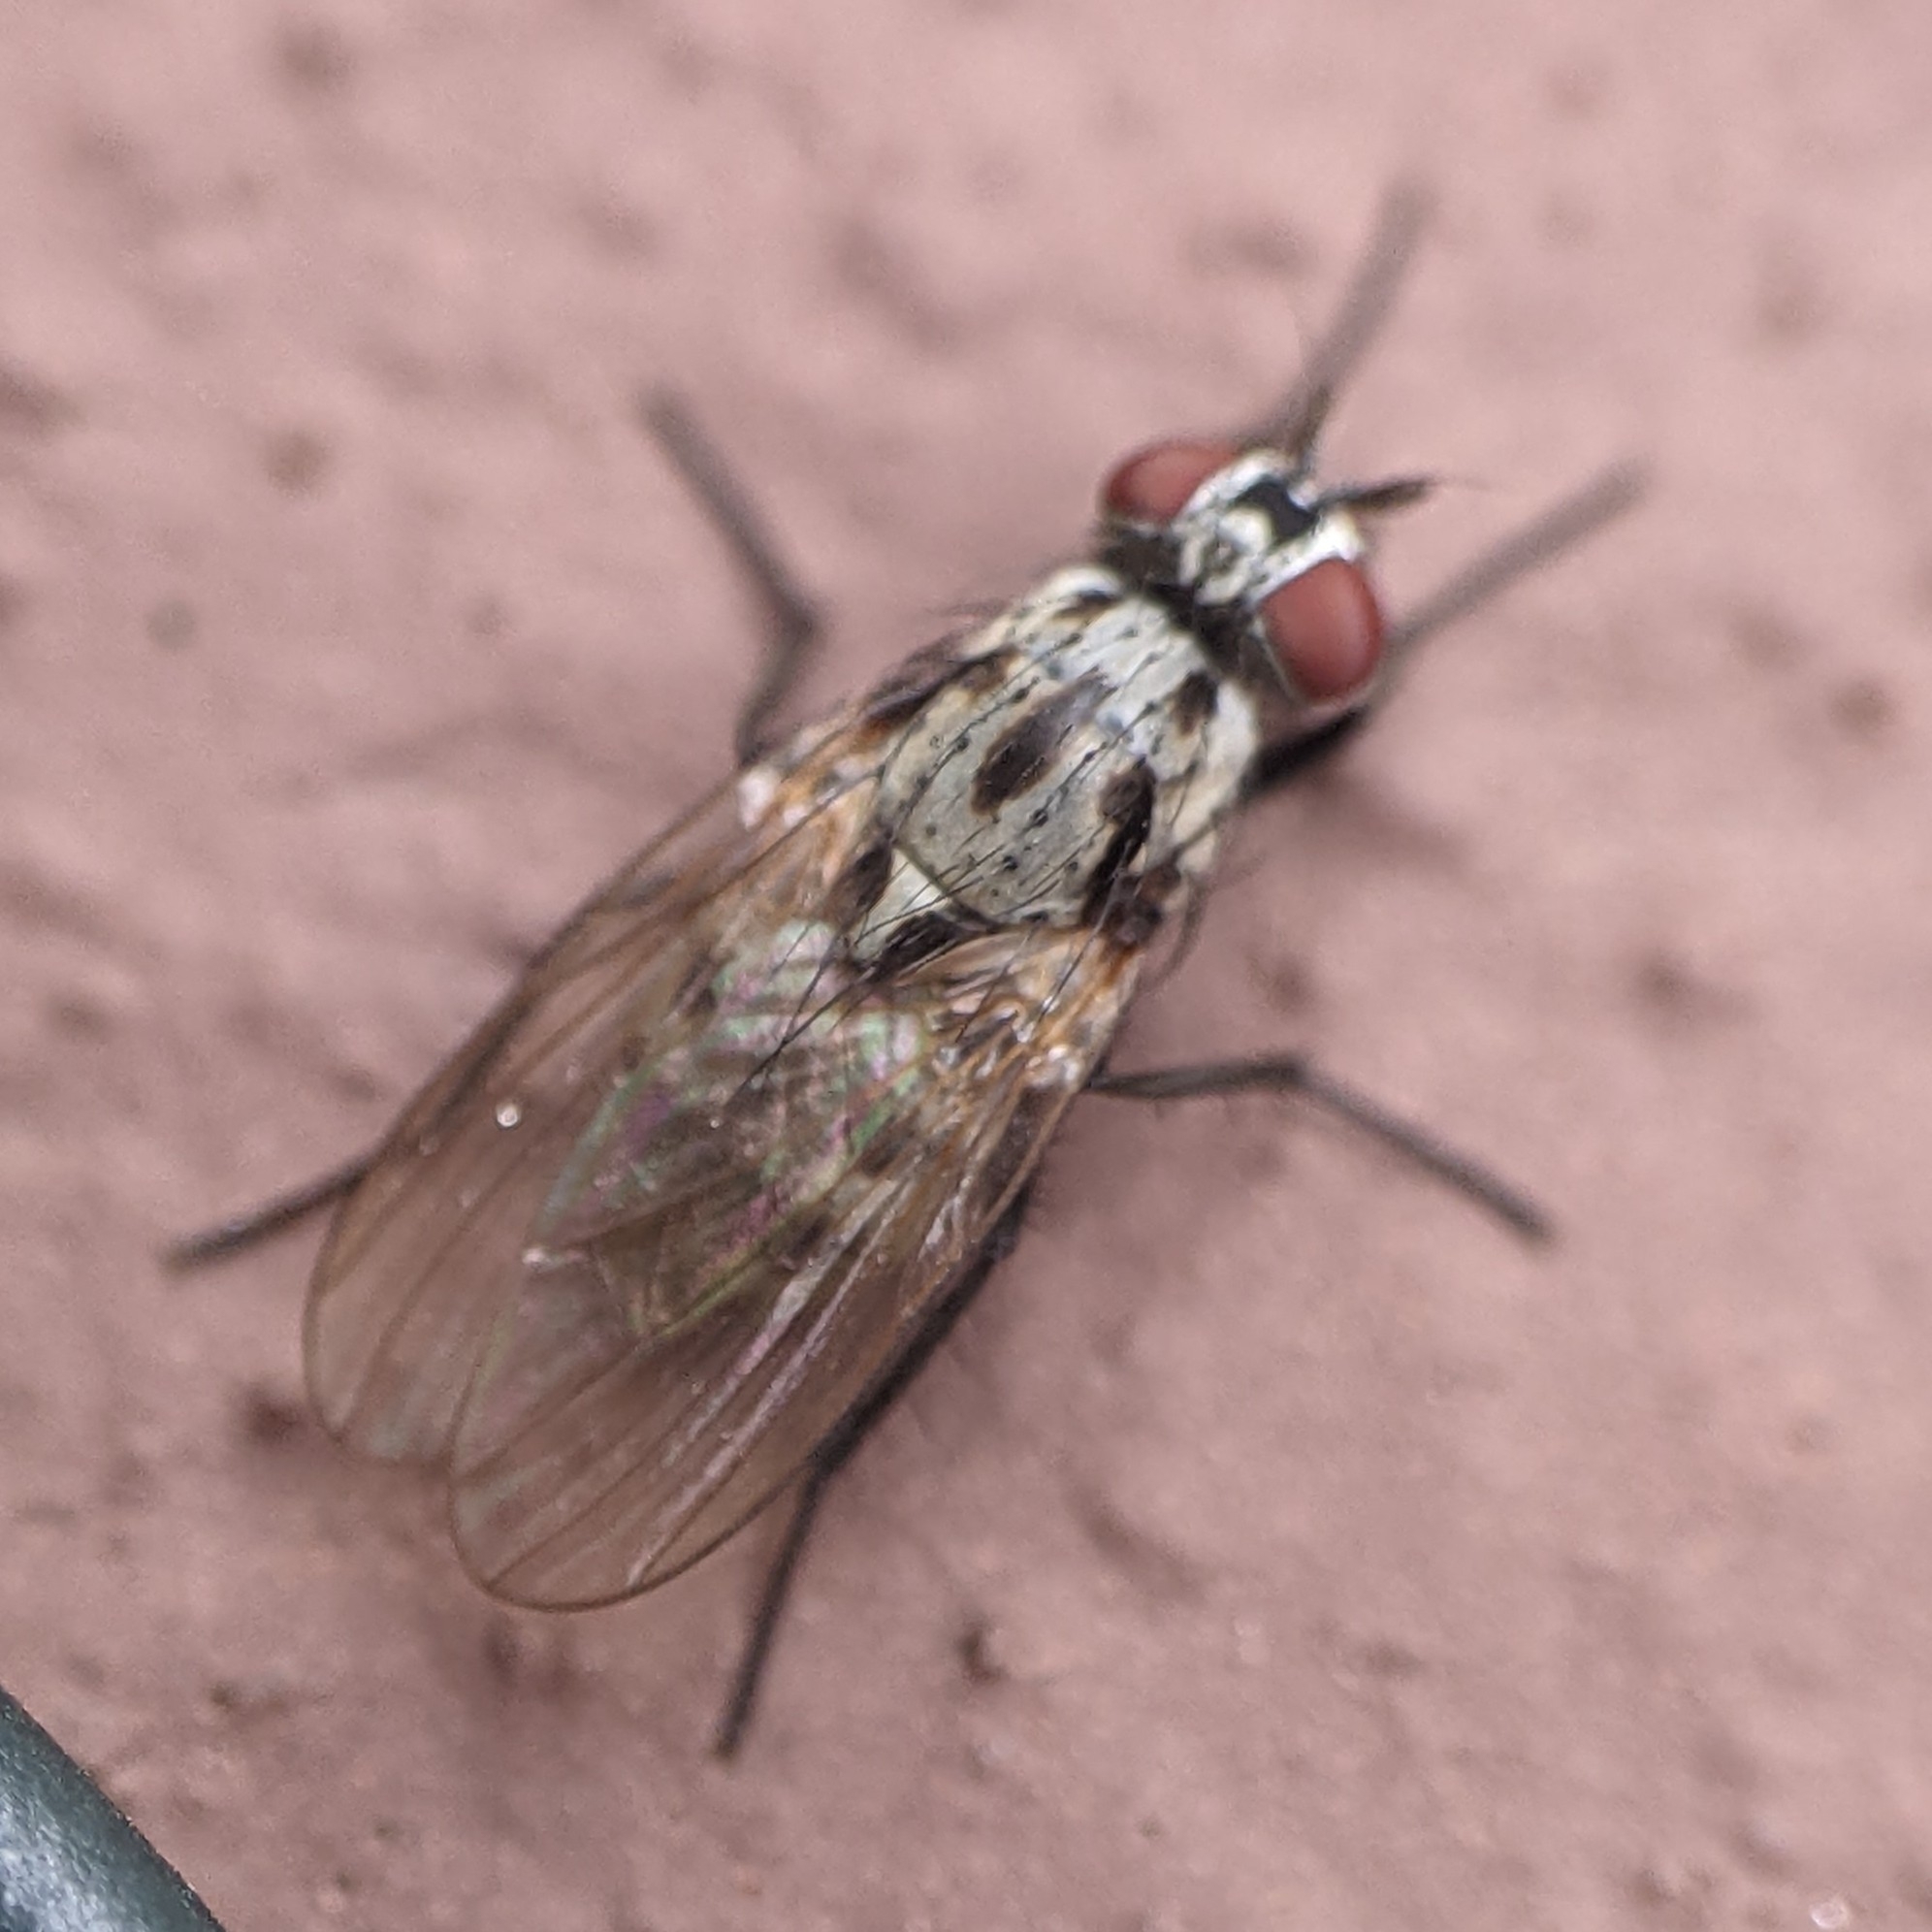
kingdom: Animalia
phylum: Arthropoda
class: Insecta
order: Diptera
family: Anthomyiidae
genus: Anthomyia
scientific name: Anthomyia procellaris
